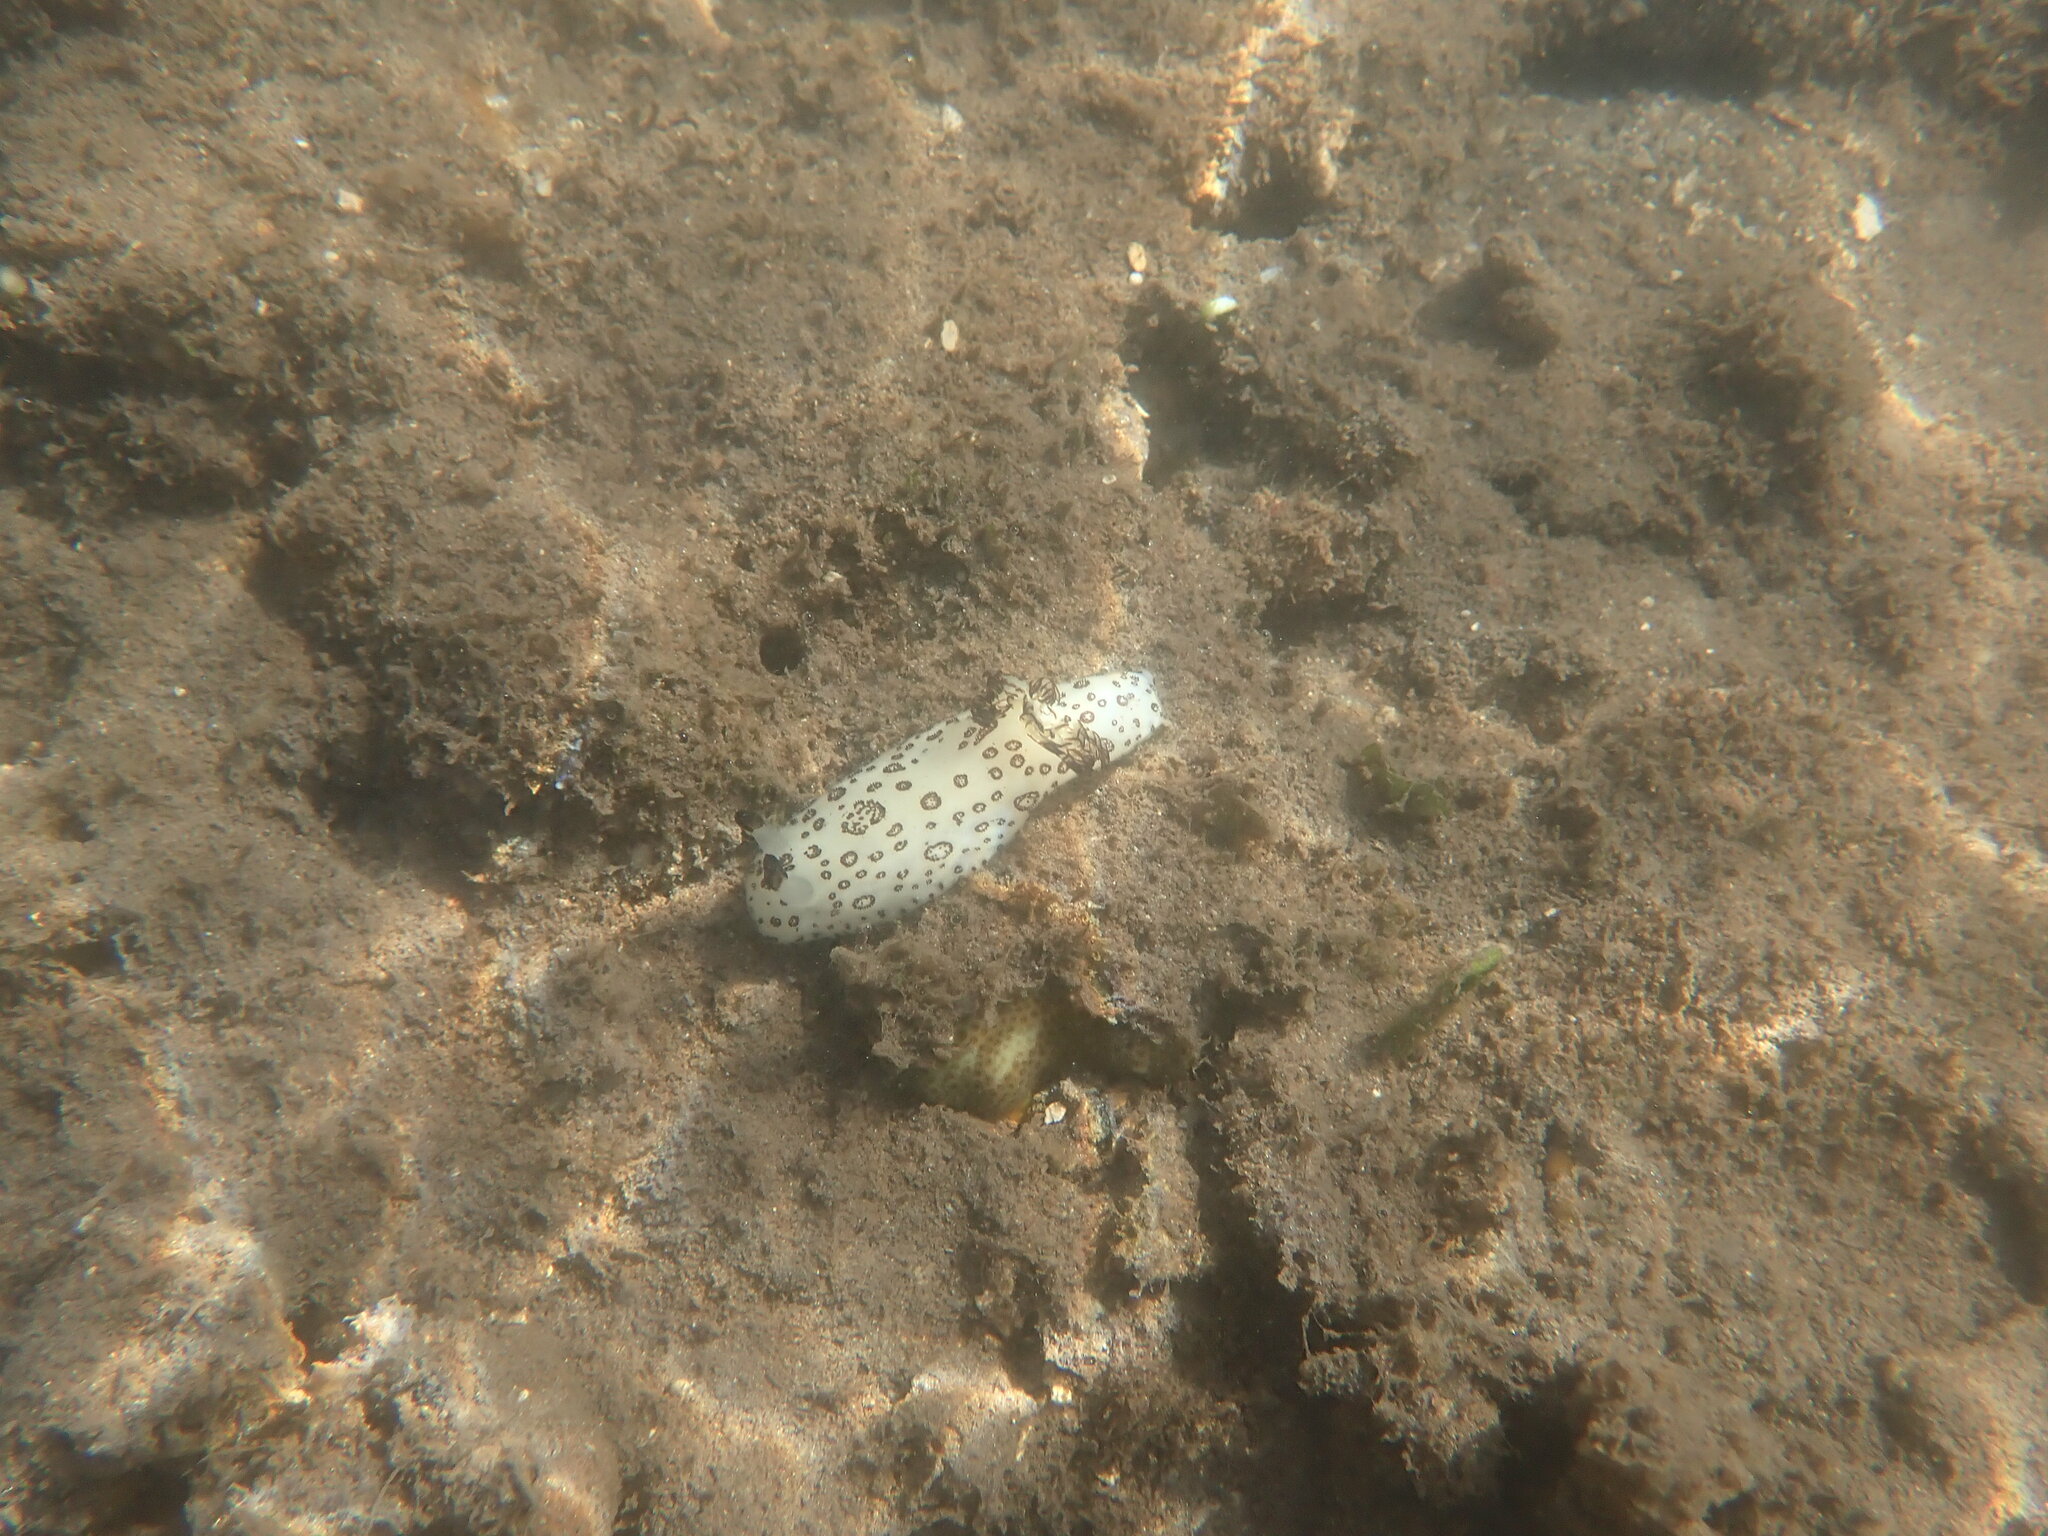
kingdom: Animalia
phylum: Mollusca
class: Gastropoda
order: Nudibranchia
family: Discodorididae
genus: Jorunna
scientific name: Jorunna funebris
